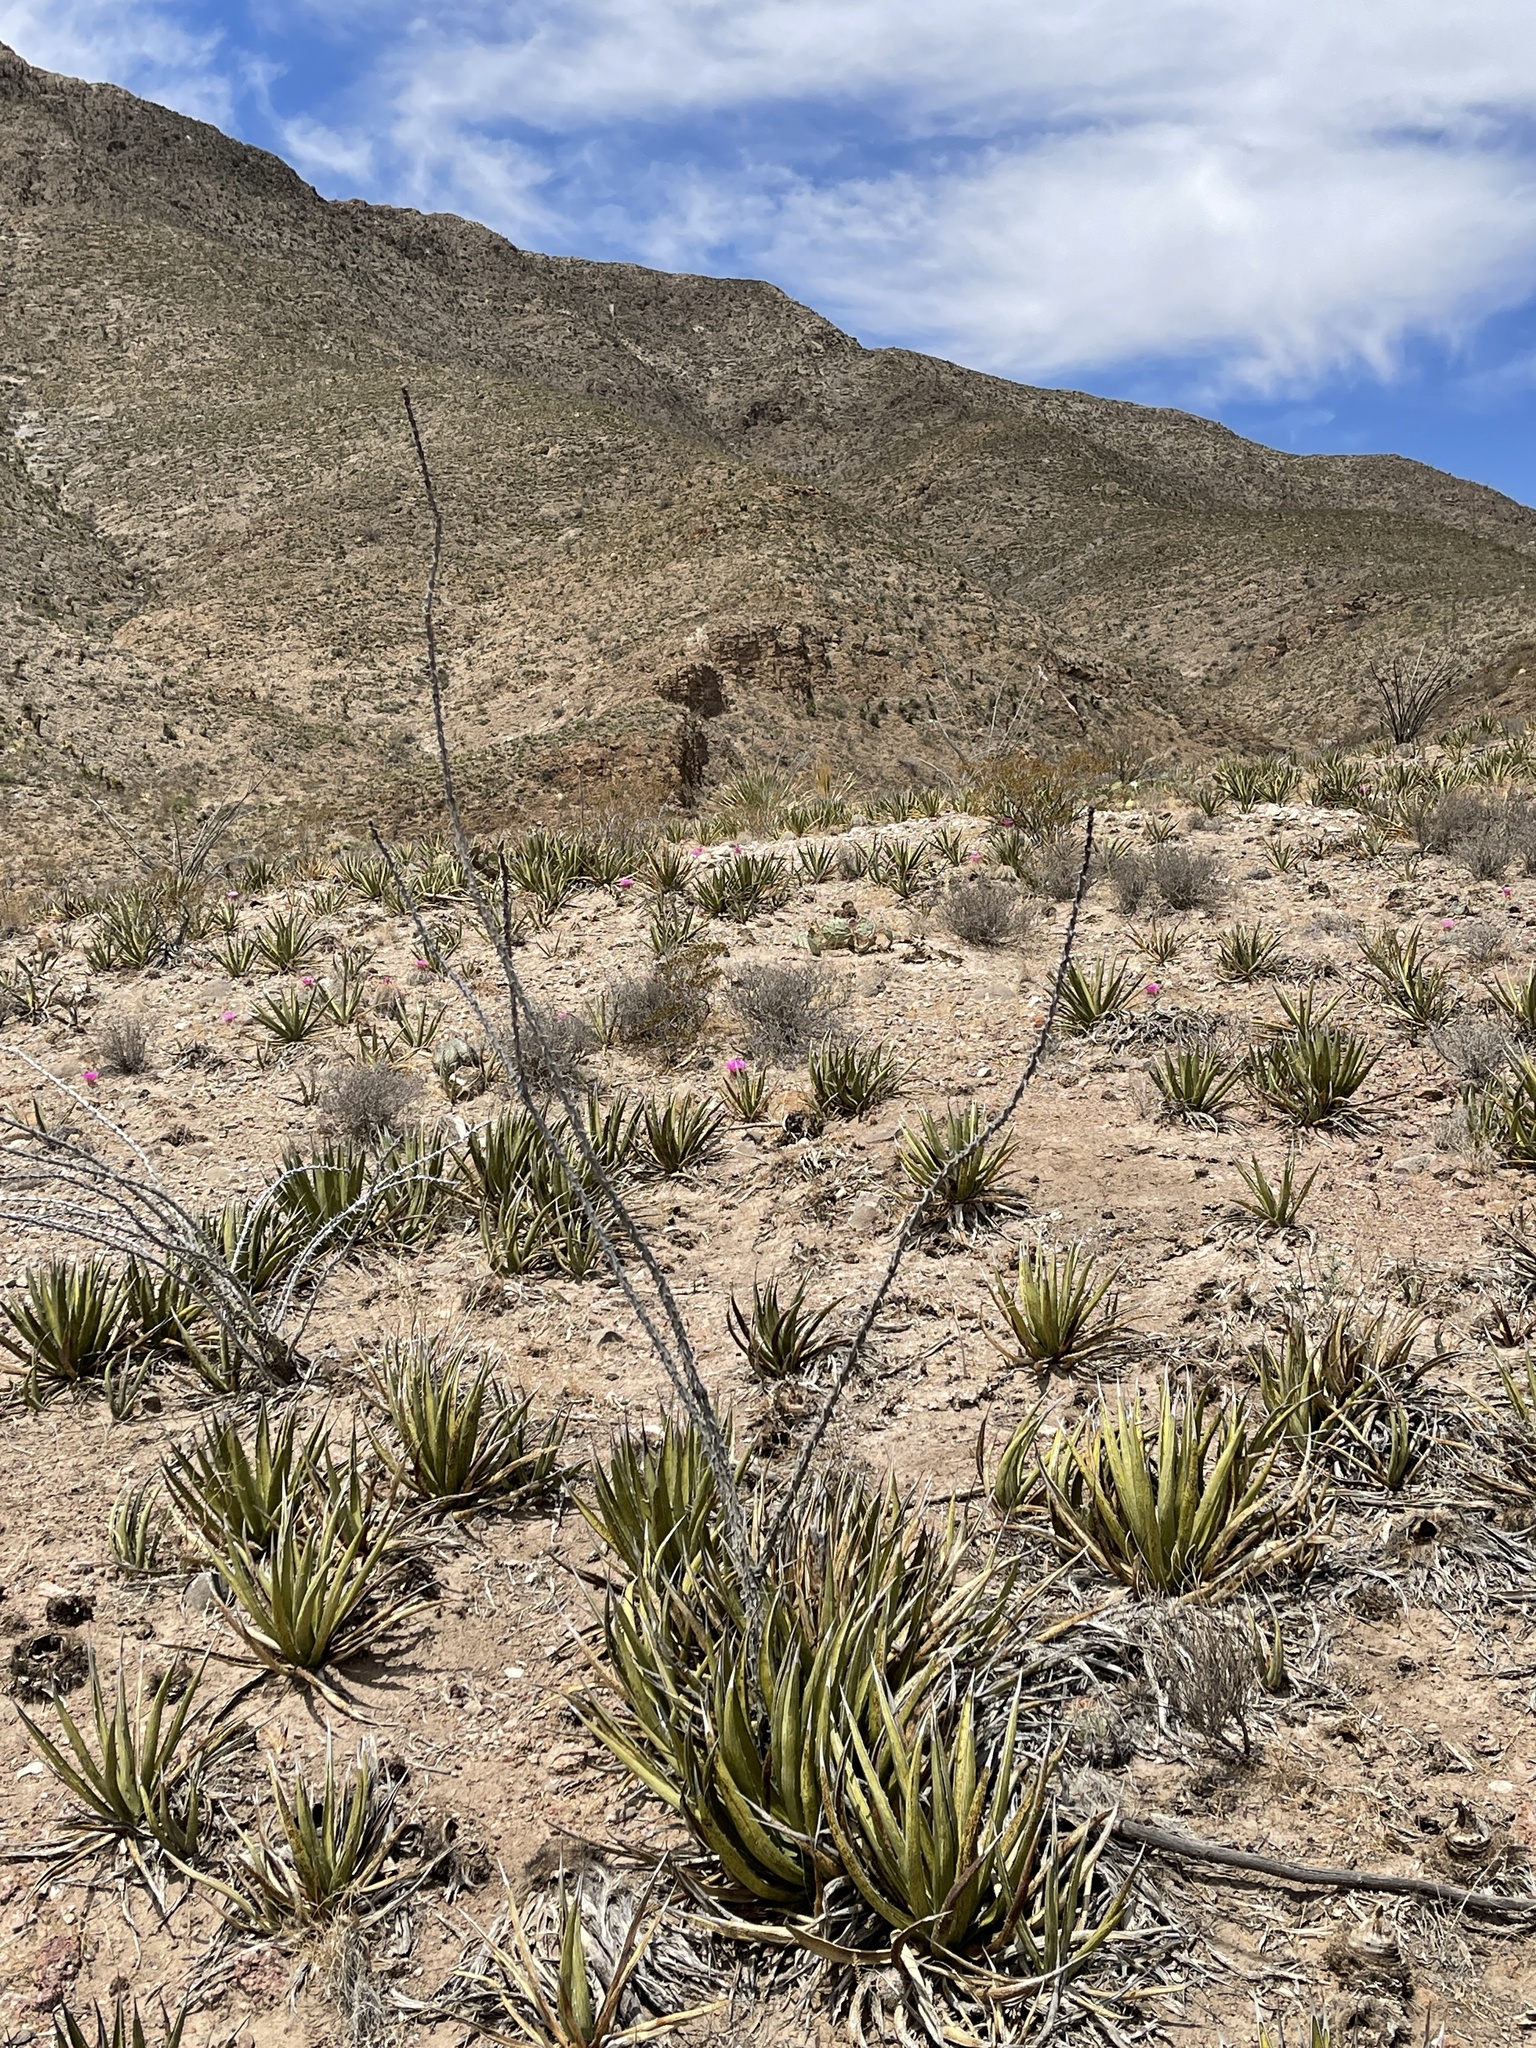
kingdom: Plantae
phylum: Tracheophyta
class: Liliopsida
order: Asparagales
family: Asparagaceae
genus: Agave
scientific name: Agave lechuguilla
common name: Lecheguilla agave
